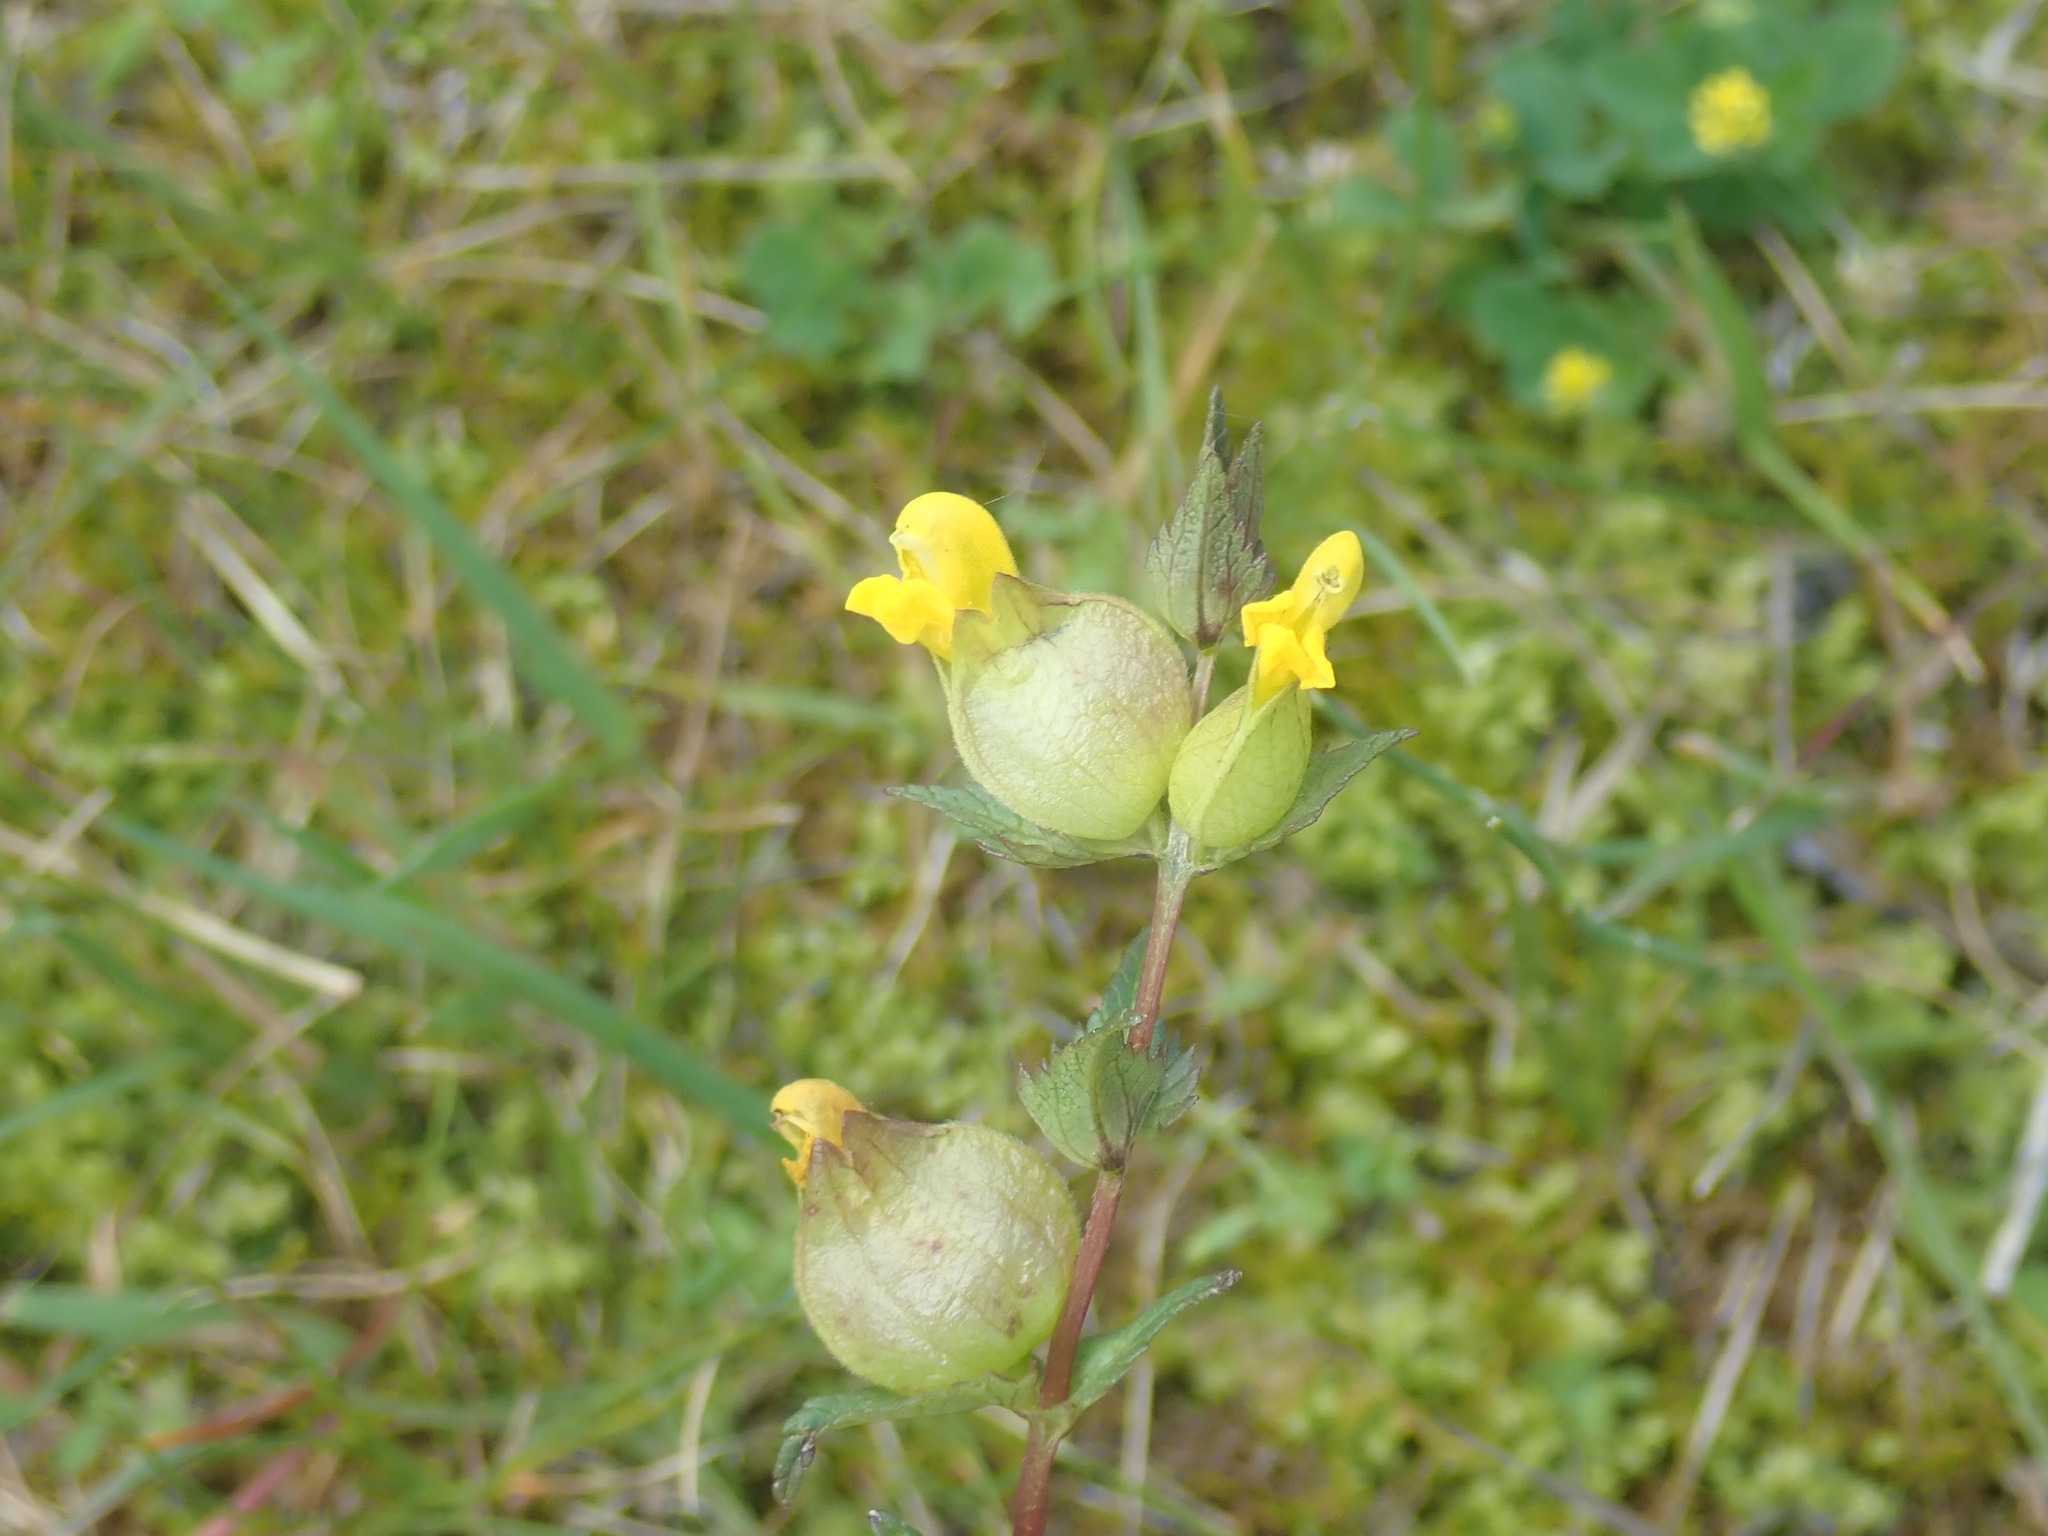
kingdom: Plantae
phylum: Tracheophyta
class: Magnoliopsida
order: Lamiales
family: Orobanchaceae
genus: Rhinanthus
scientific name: Rhinanthus minor
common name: Yellow-rattle
